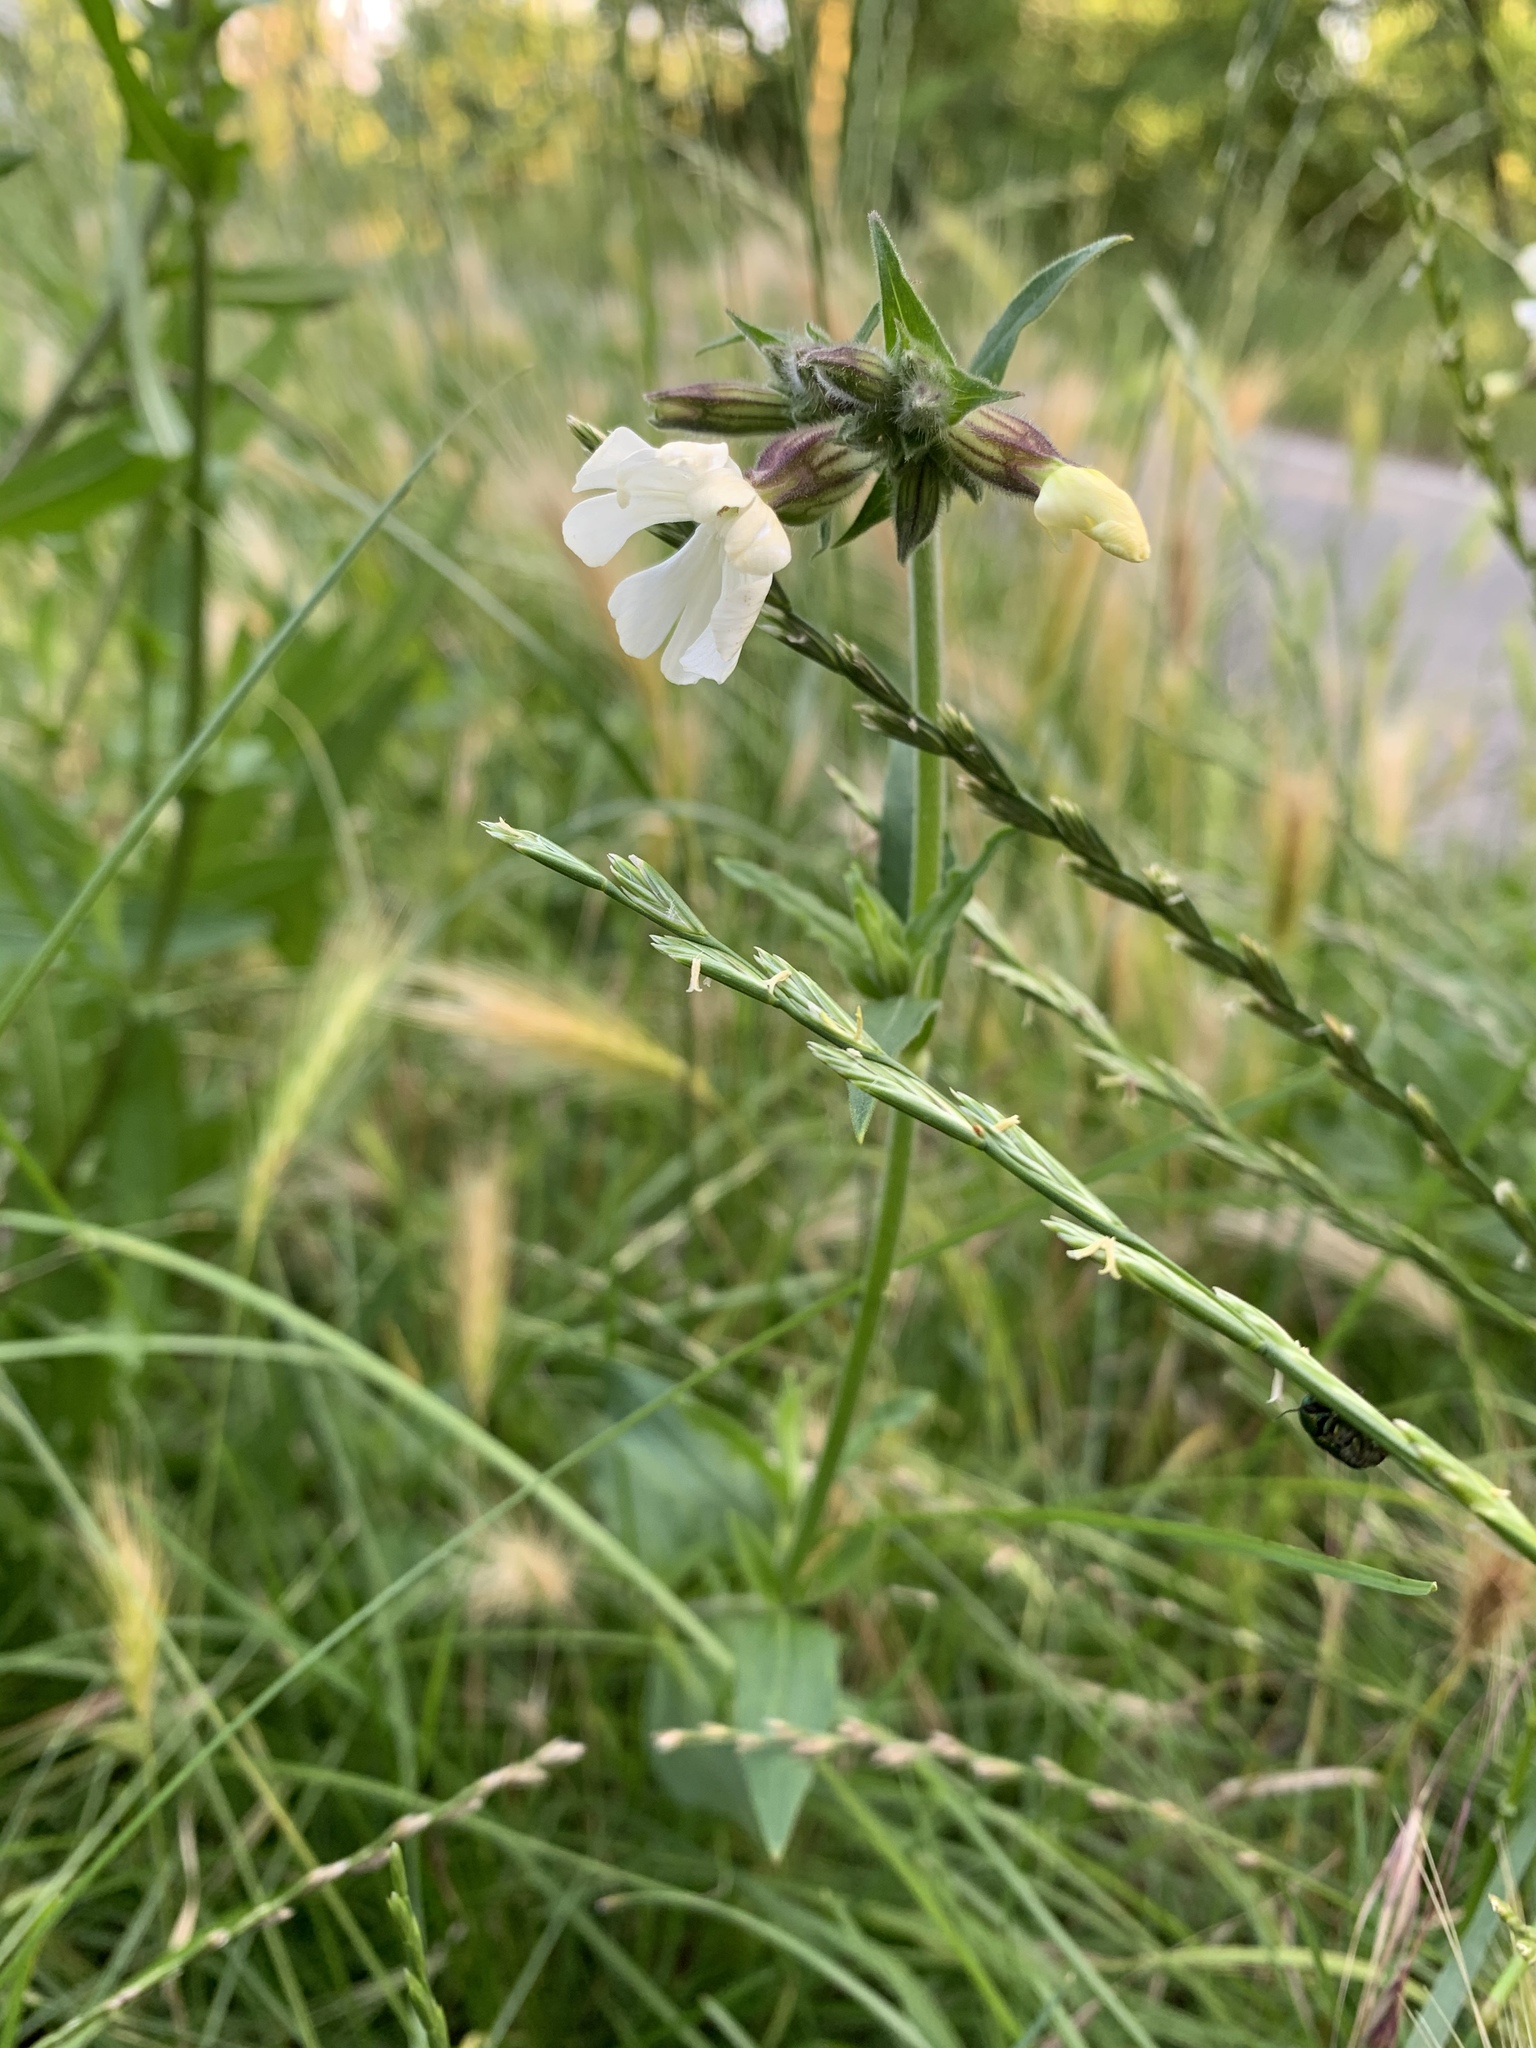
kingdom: Plantae
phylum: Tracheophyta
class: Magnoliopsida
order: Caryophyllales
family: Caryophyllaceae
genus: Silene
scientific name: Silene latifolia
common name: White campion
